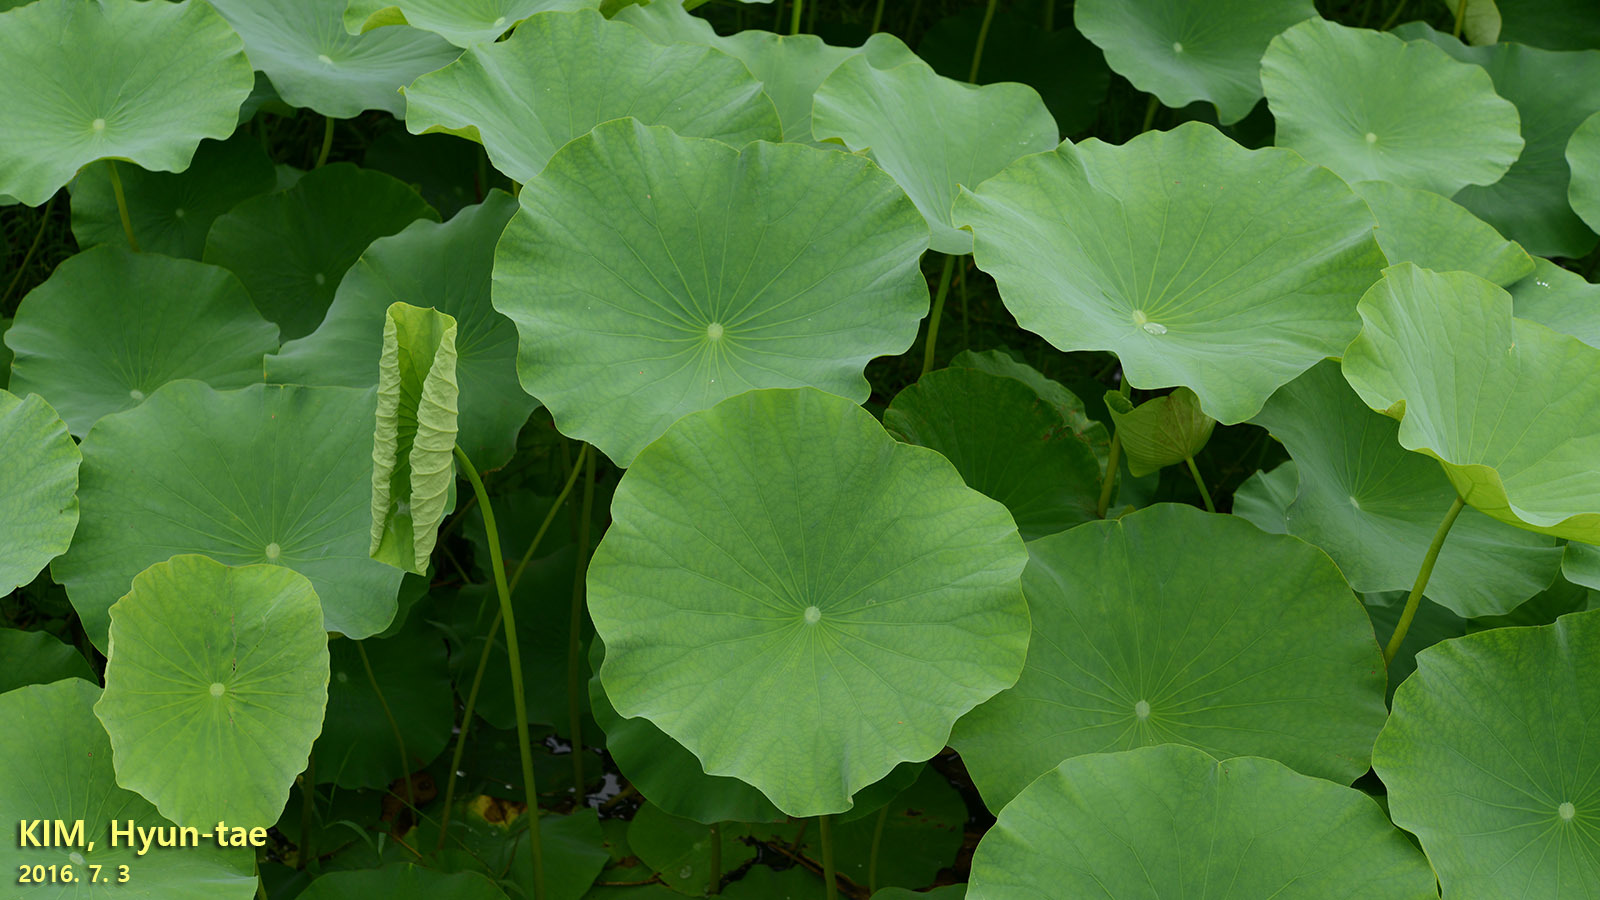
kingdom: Plantae
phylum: Tracheophyta
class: Magnoliopsida
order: Proteales
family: Nelumbonaceae
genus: Nelumbo
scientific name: Nelumbo nucifera
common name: Sacred lotus
